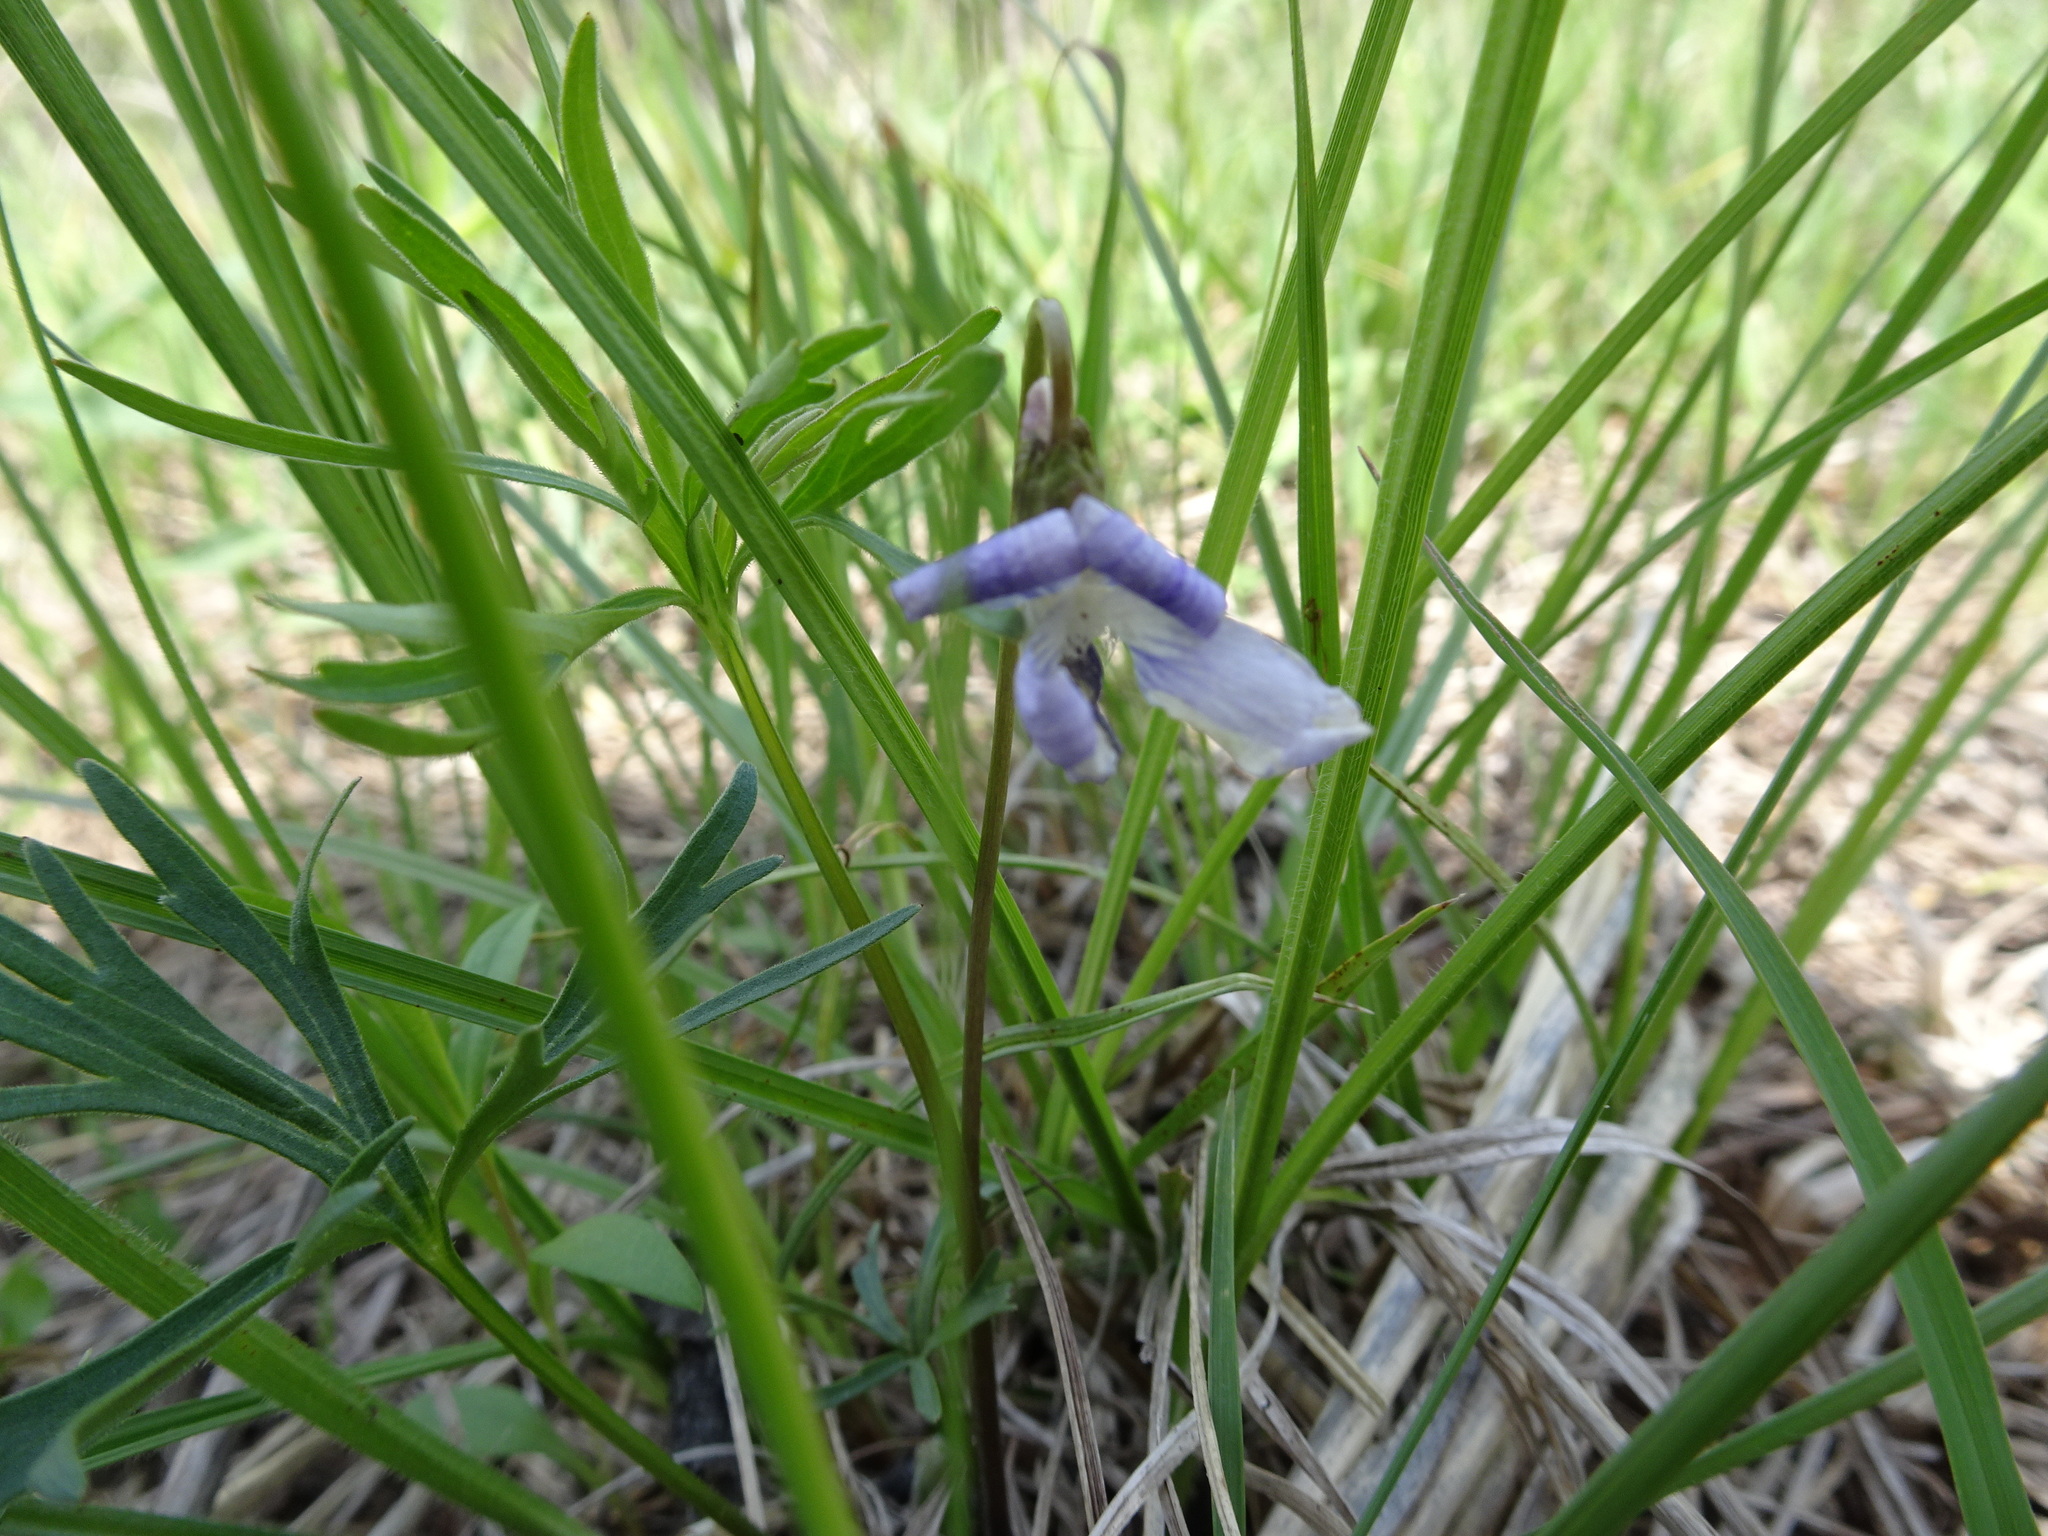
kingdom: Plantae
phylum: Tracheophyta
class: Magnoliopsida
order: Malpighiales
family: Violaceae
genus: Viola
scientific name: Viola pedatifida
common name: Prairie violet
